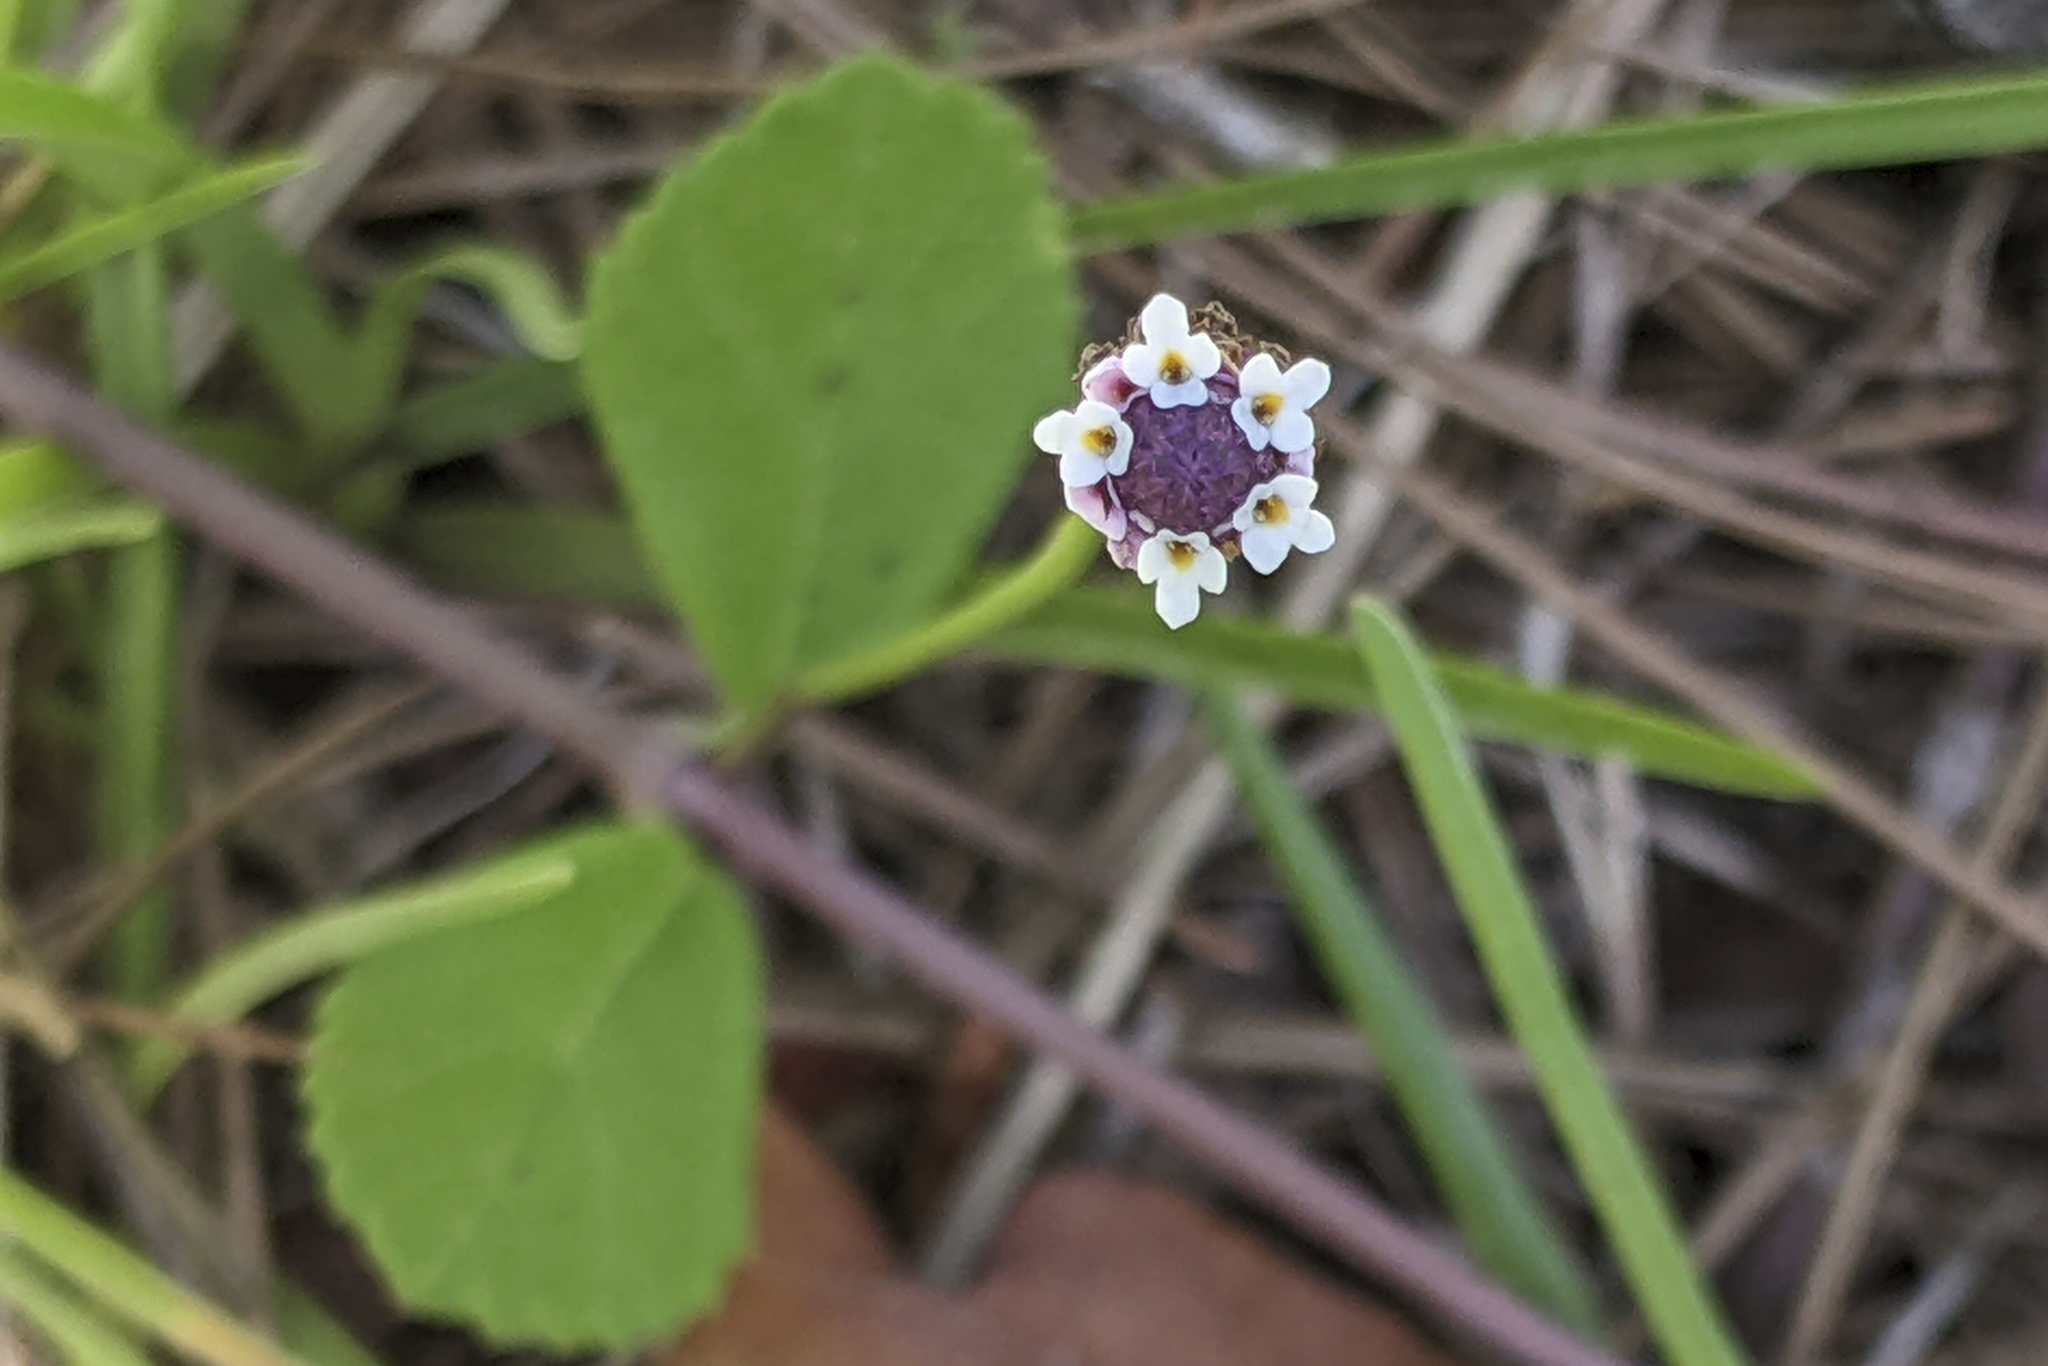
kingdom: Plantae
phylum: Tracheophyta
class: Magnoliopsida
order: Lamiales
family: Verbenaceae
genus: Phyla
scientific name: Phyla nodiflora
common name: Frogfruit
